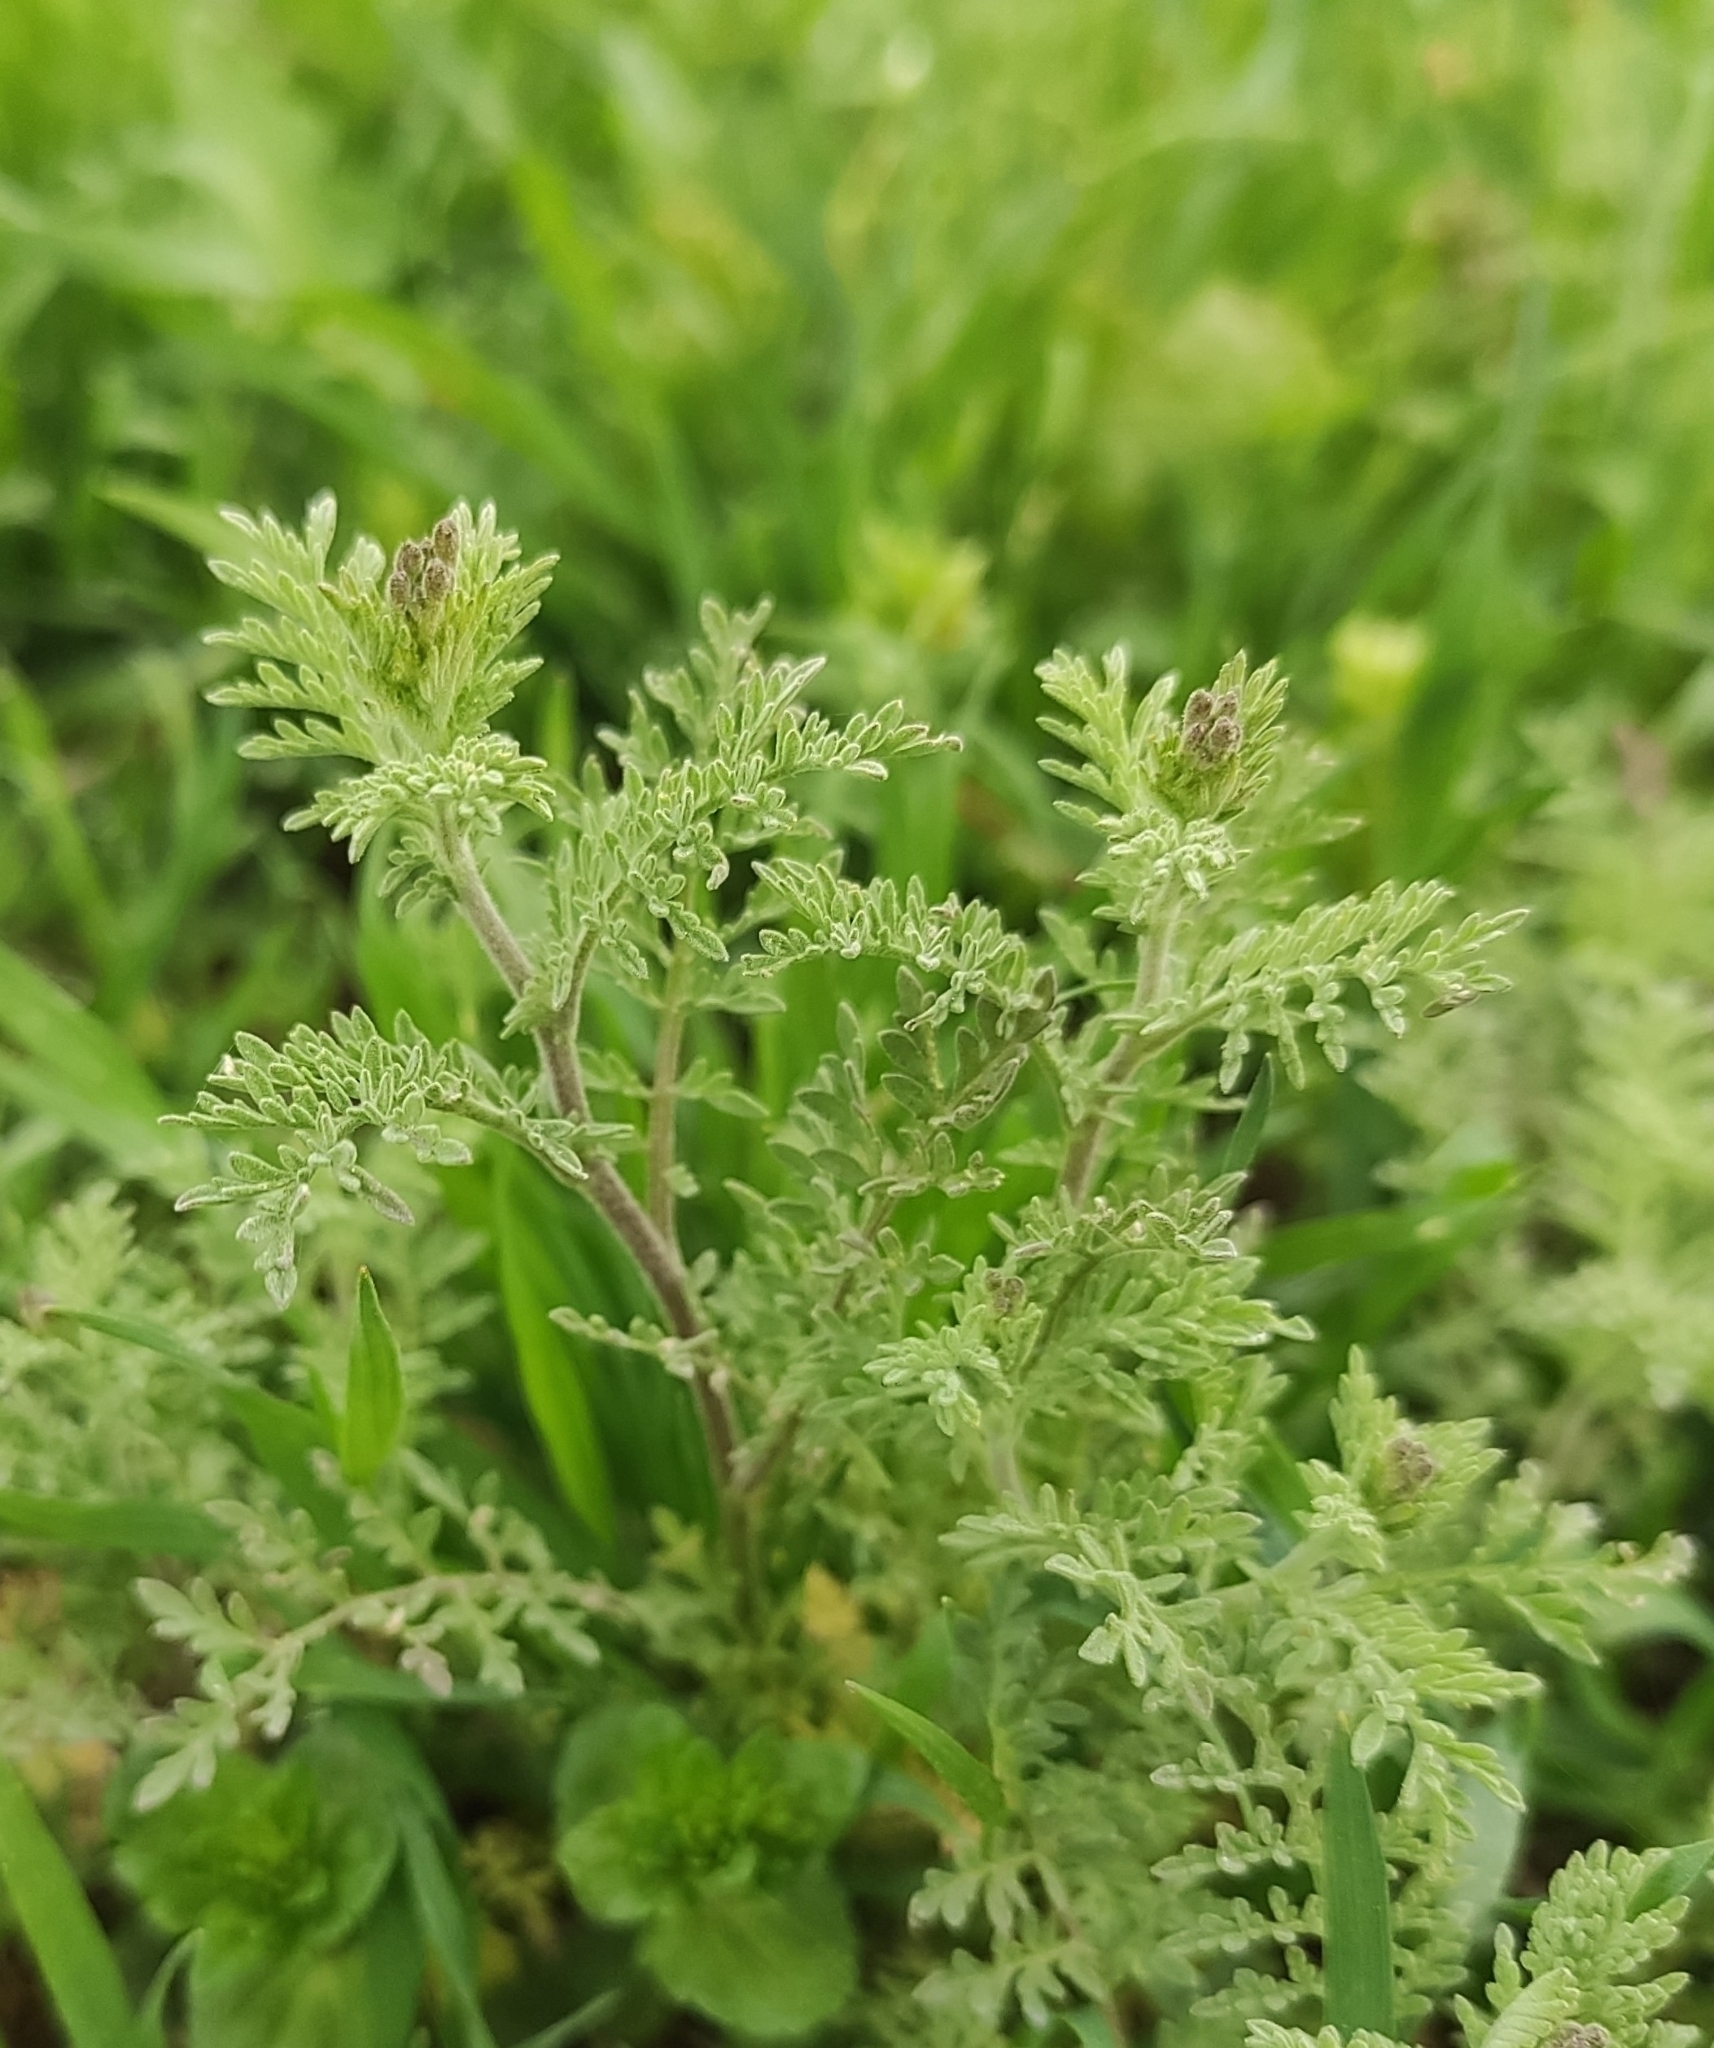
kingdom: Plantae
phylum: Tracheophyta
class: Magnoliopsida
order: Brassicales
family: Brassicaceae
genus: Descurainia
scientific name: Descurainia sophia
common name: Flixweed
